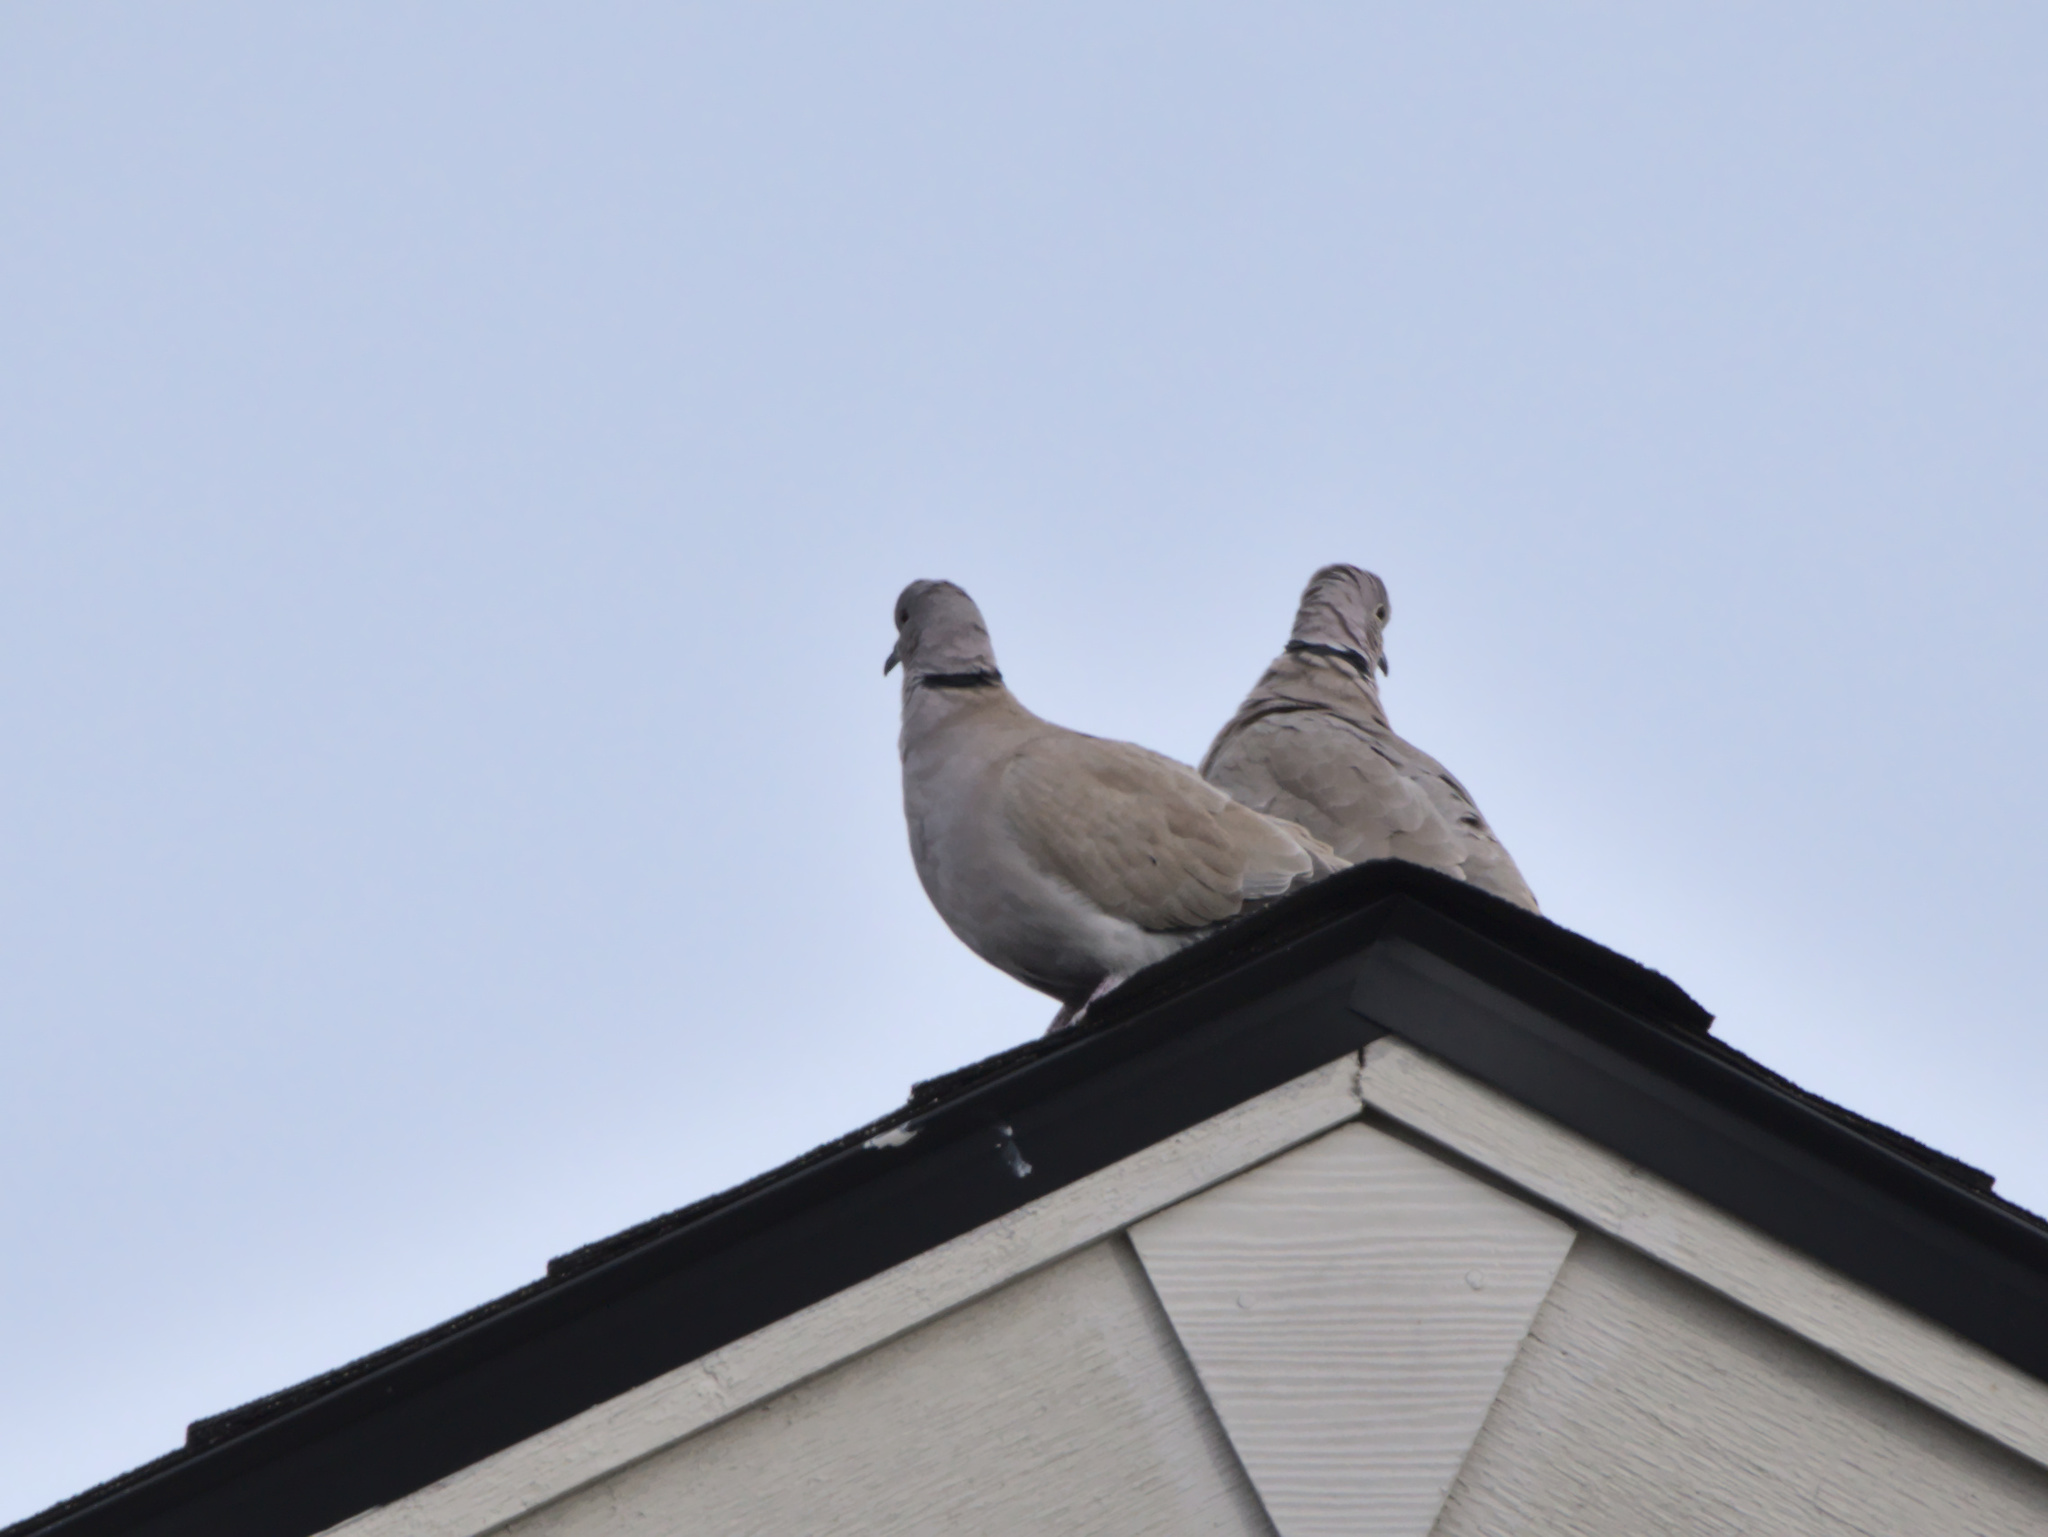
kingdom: Animalia
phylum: Chordata
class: Aves
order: Columbiformes
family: Columbidae
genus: Streptopelia
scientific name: Streptopelia decaocto
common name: Eurasian collared dove
